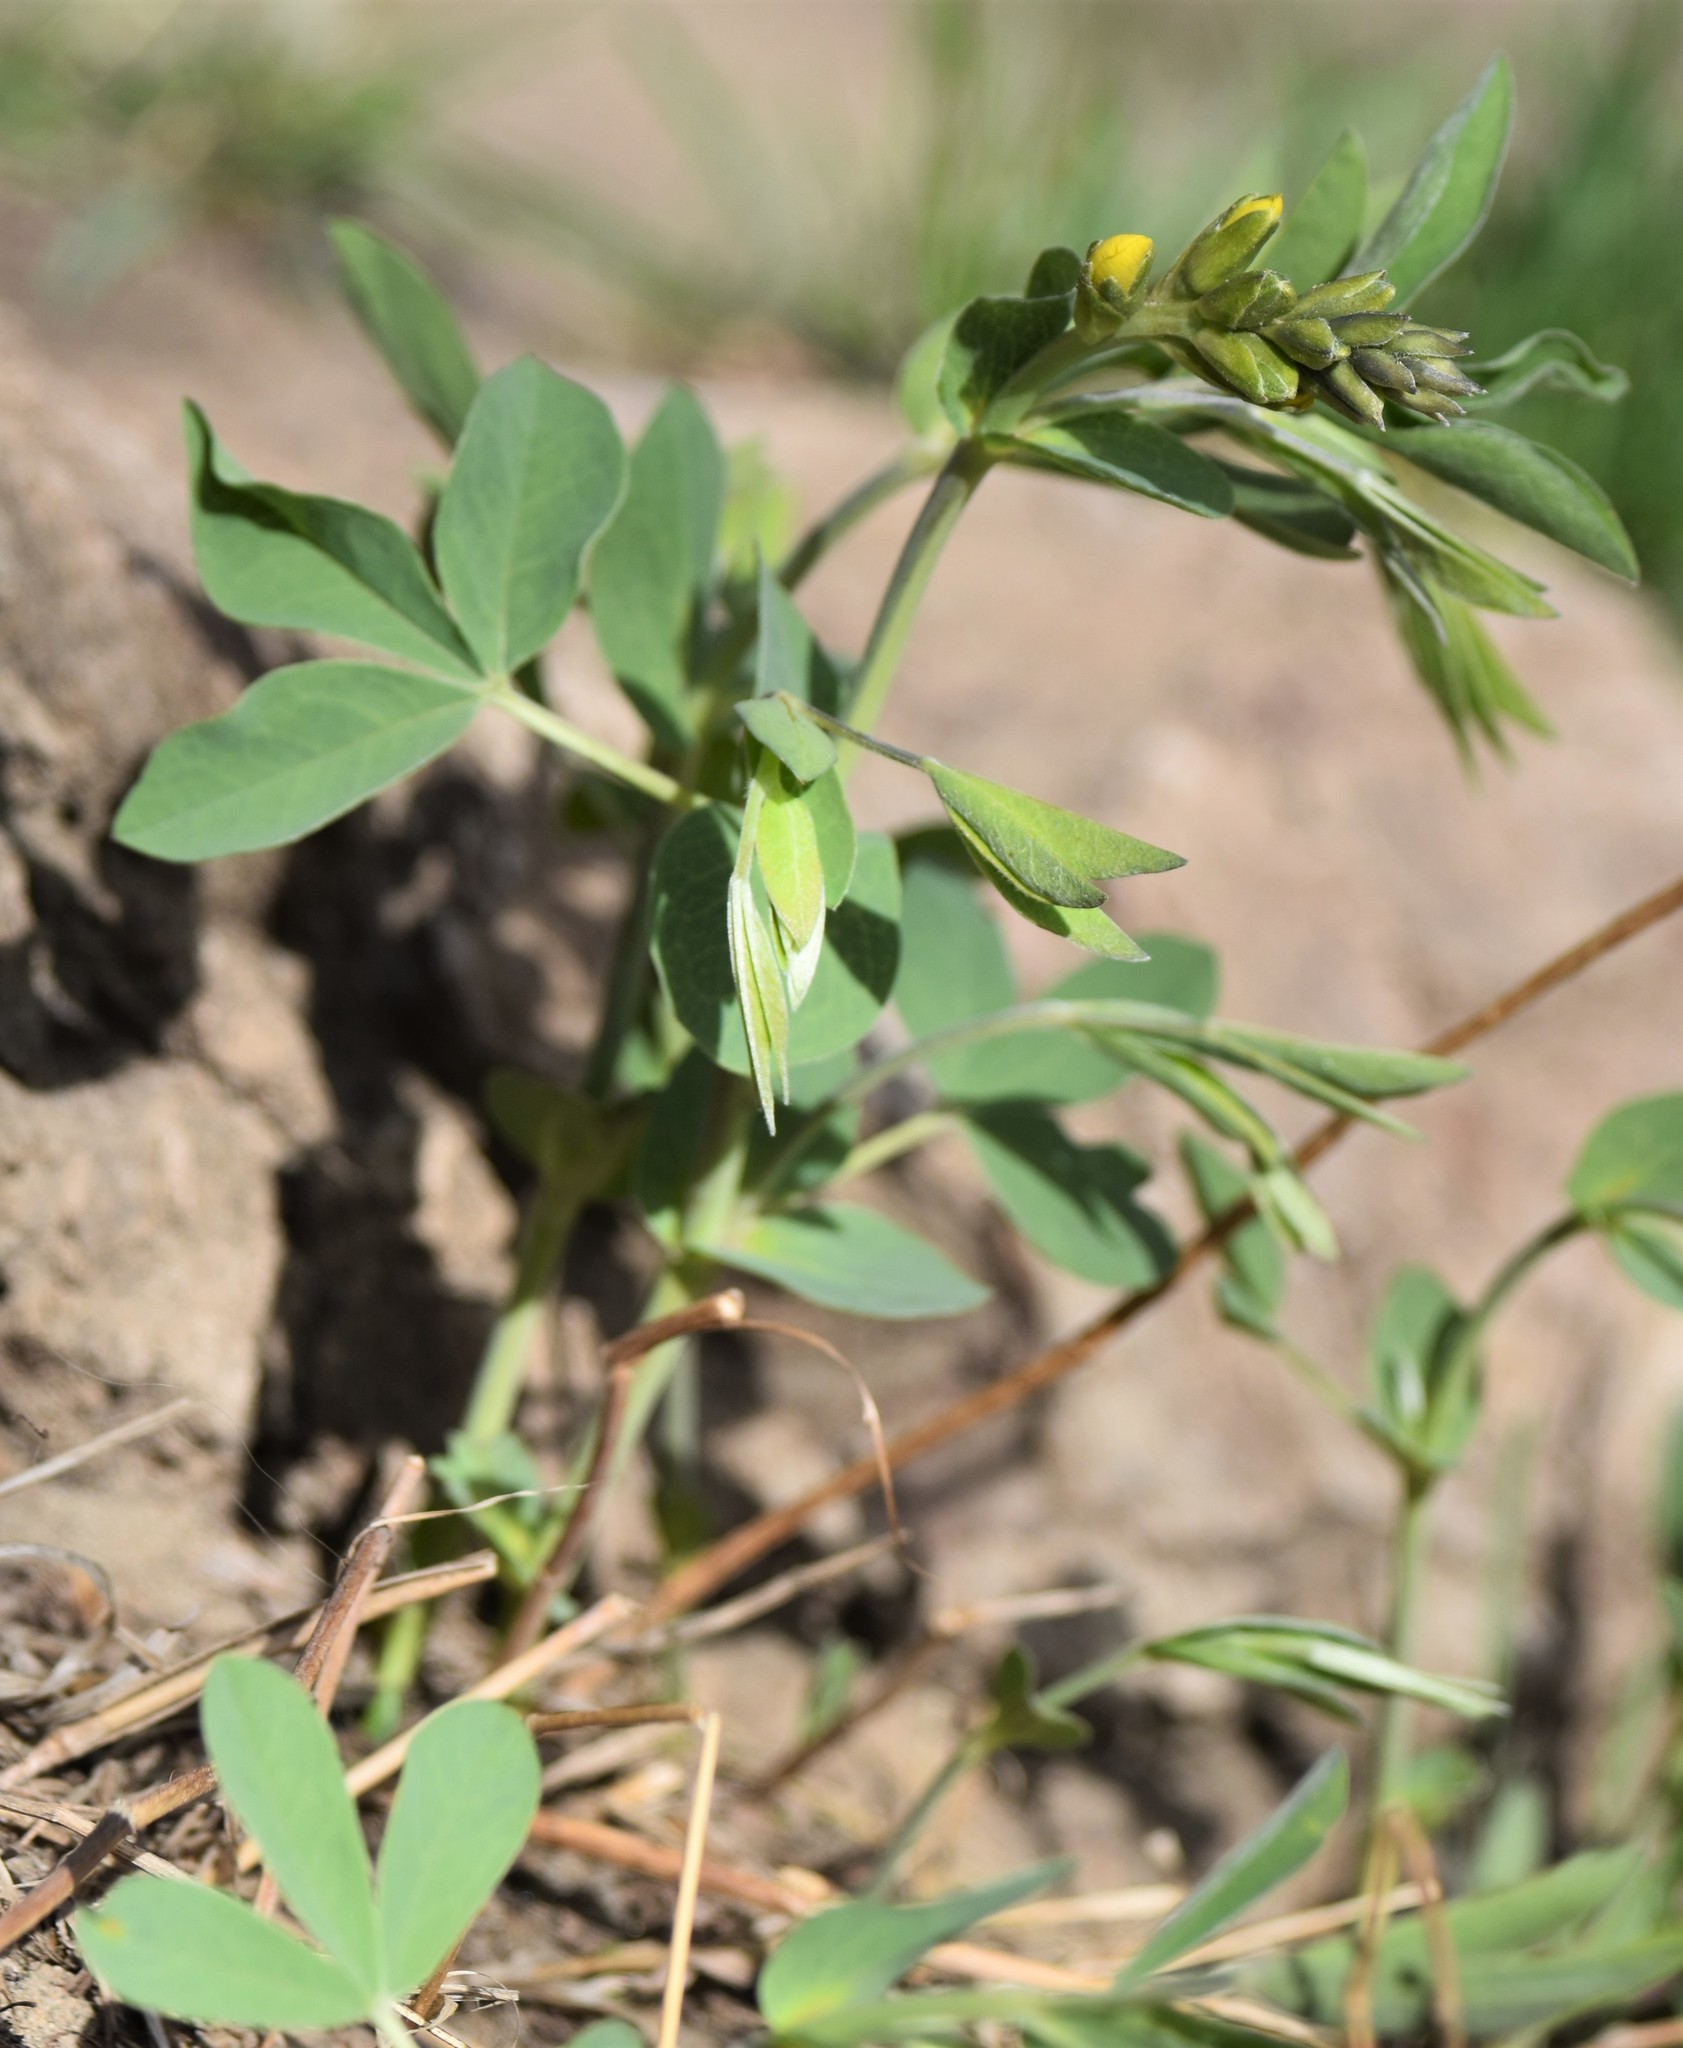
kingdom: Plantae
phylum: Tracheophyta
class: Magnoliopsida
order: Fabales
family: Fabaceae
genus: Thermopsis
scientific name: Thermopsis rhombifolia
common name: Circle-pod-pea
